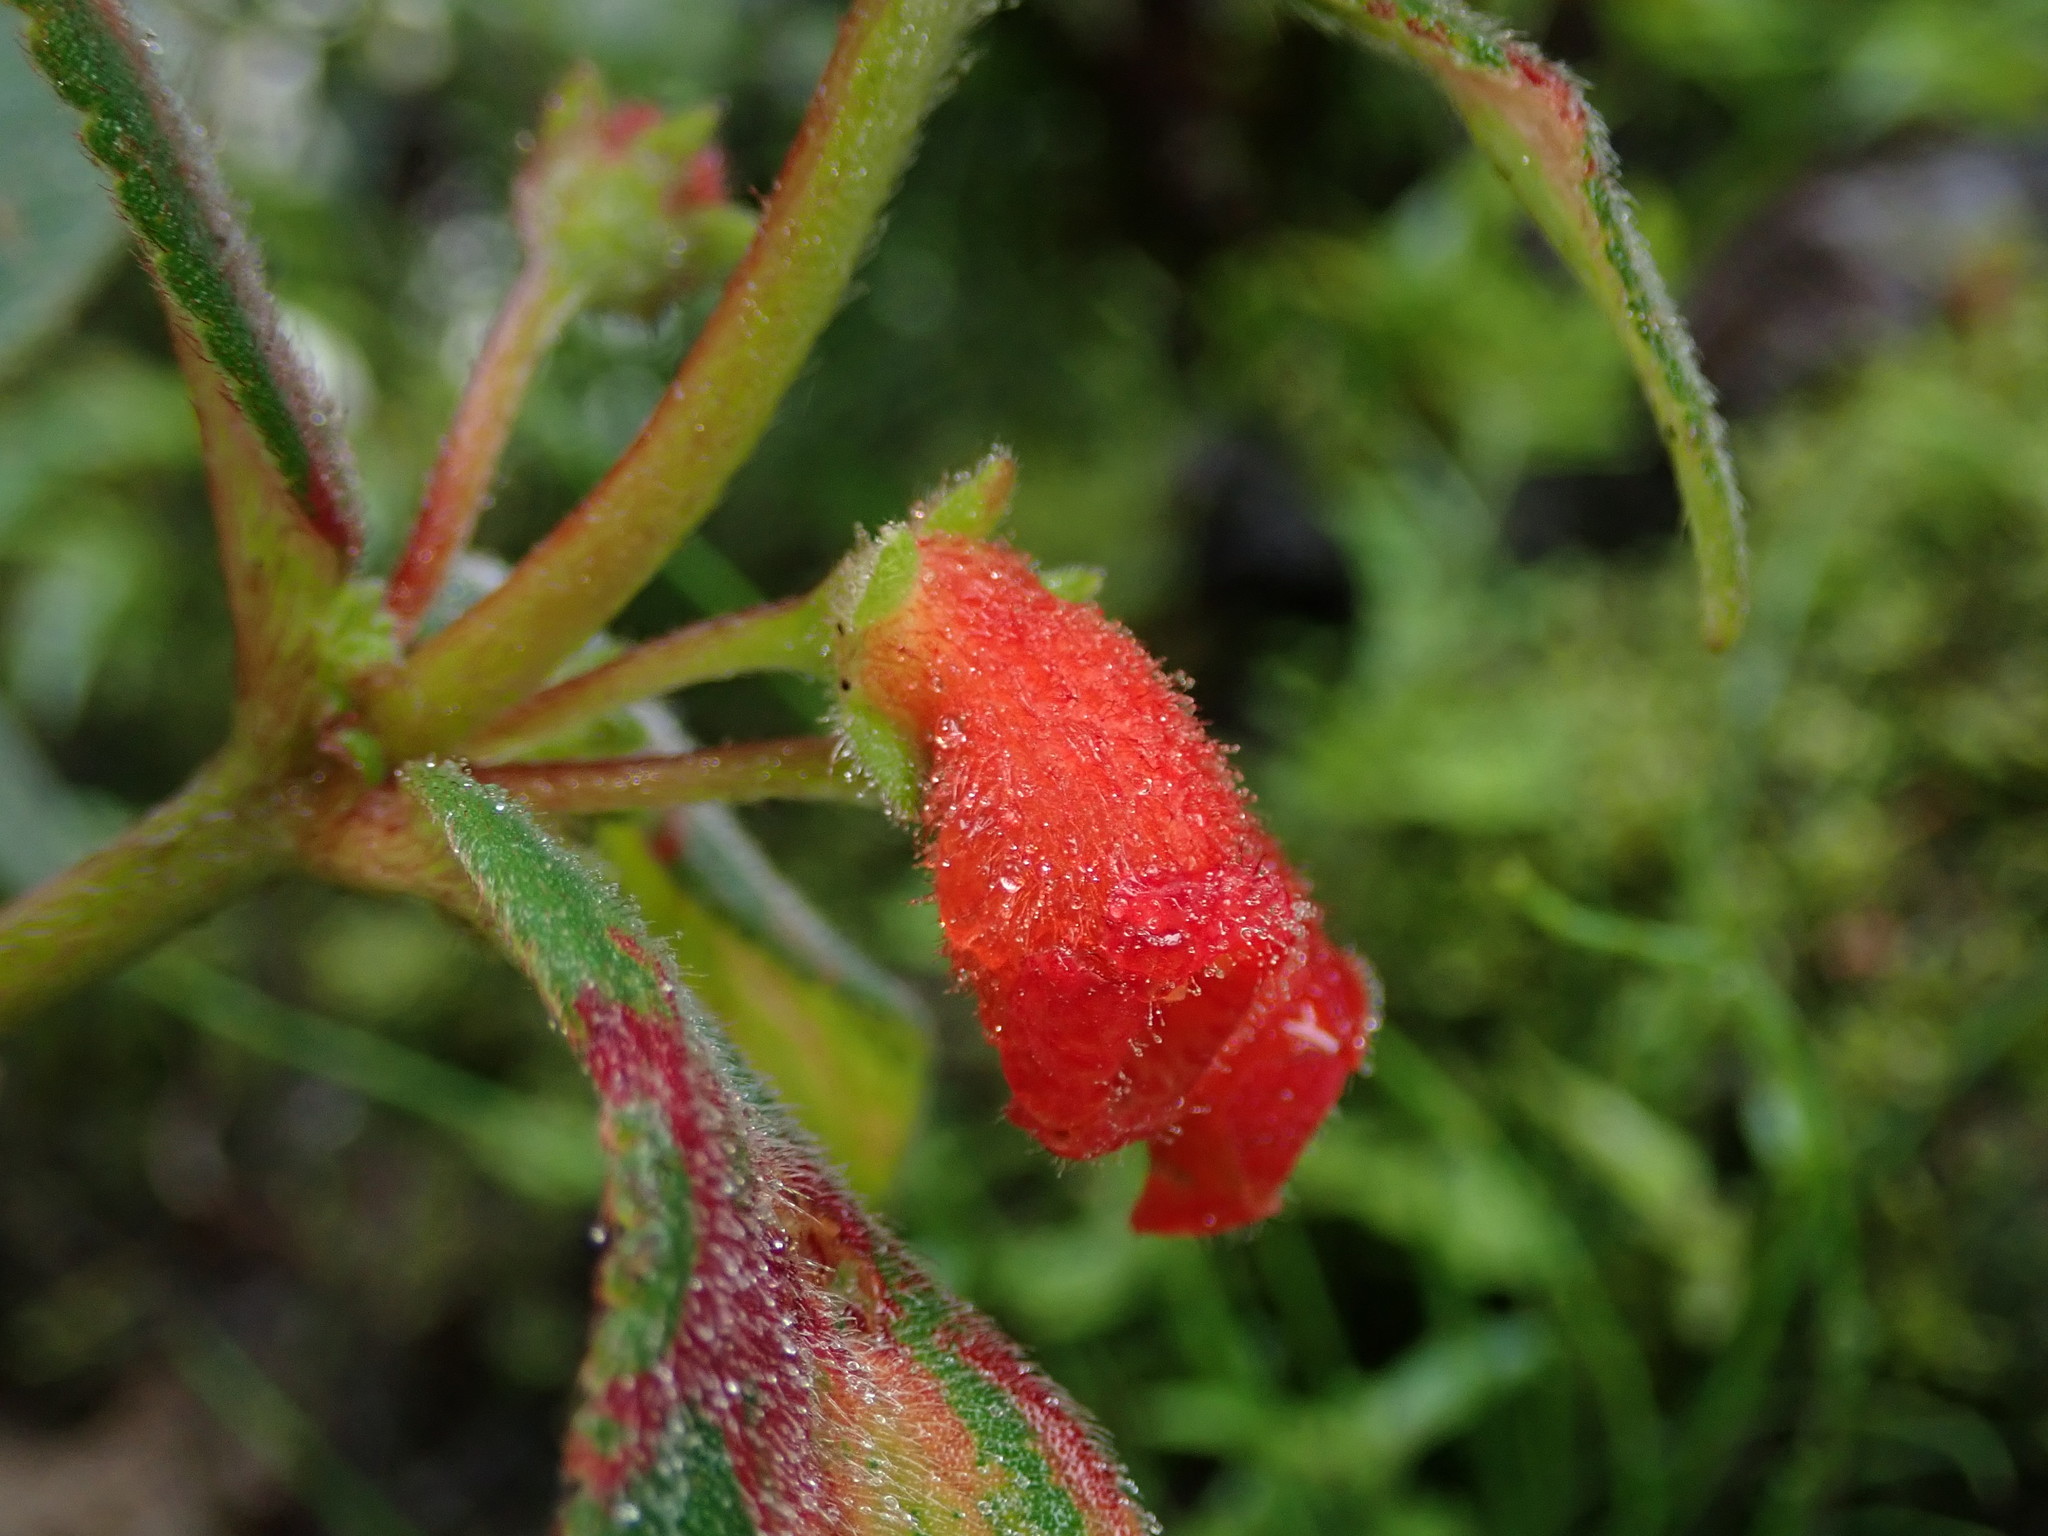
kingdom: Plantae
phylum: Tracheophyta
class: Magnoliopsida
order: Lamiales
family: Gesneriaceae
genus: Kohleria
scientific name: Kohleria spicata
